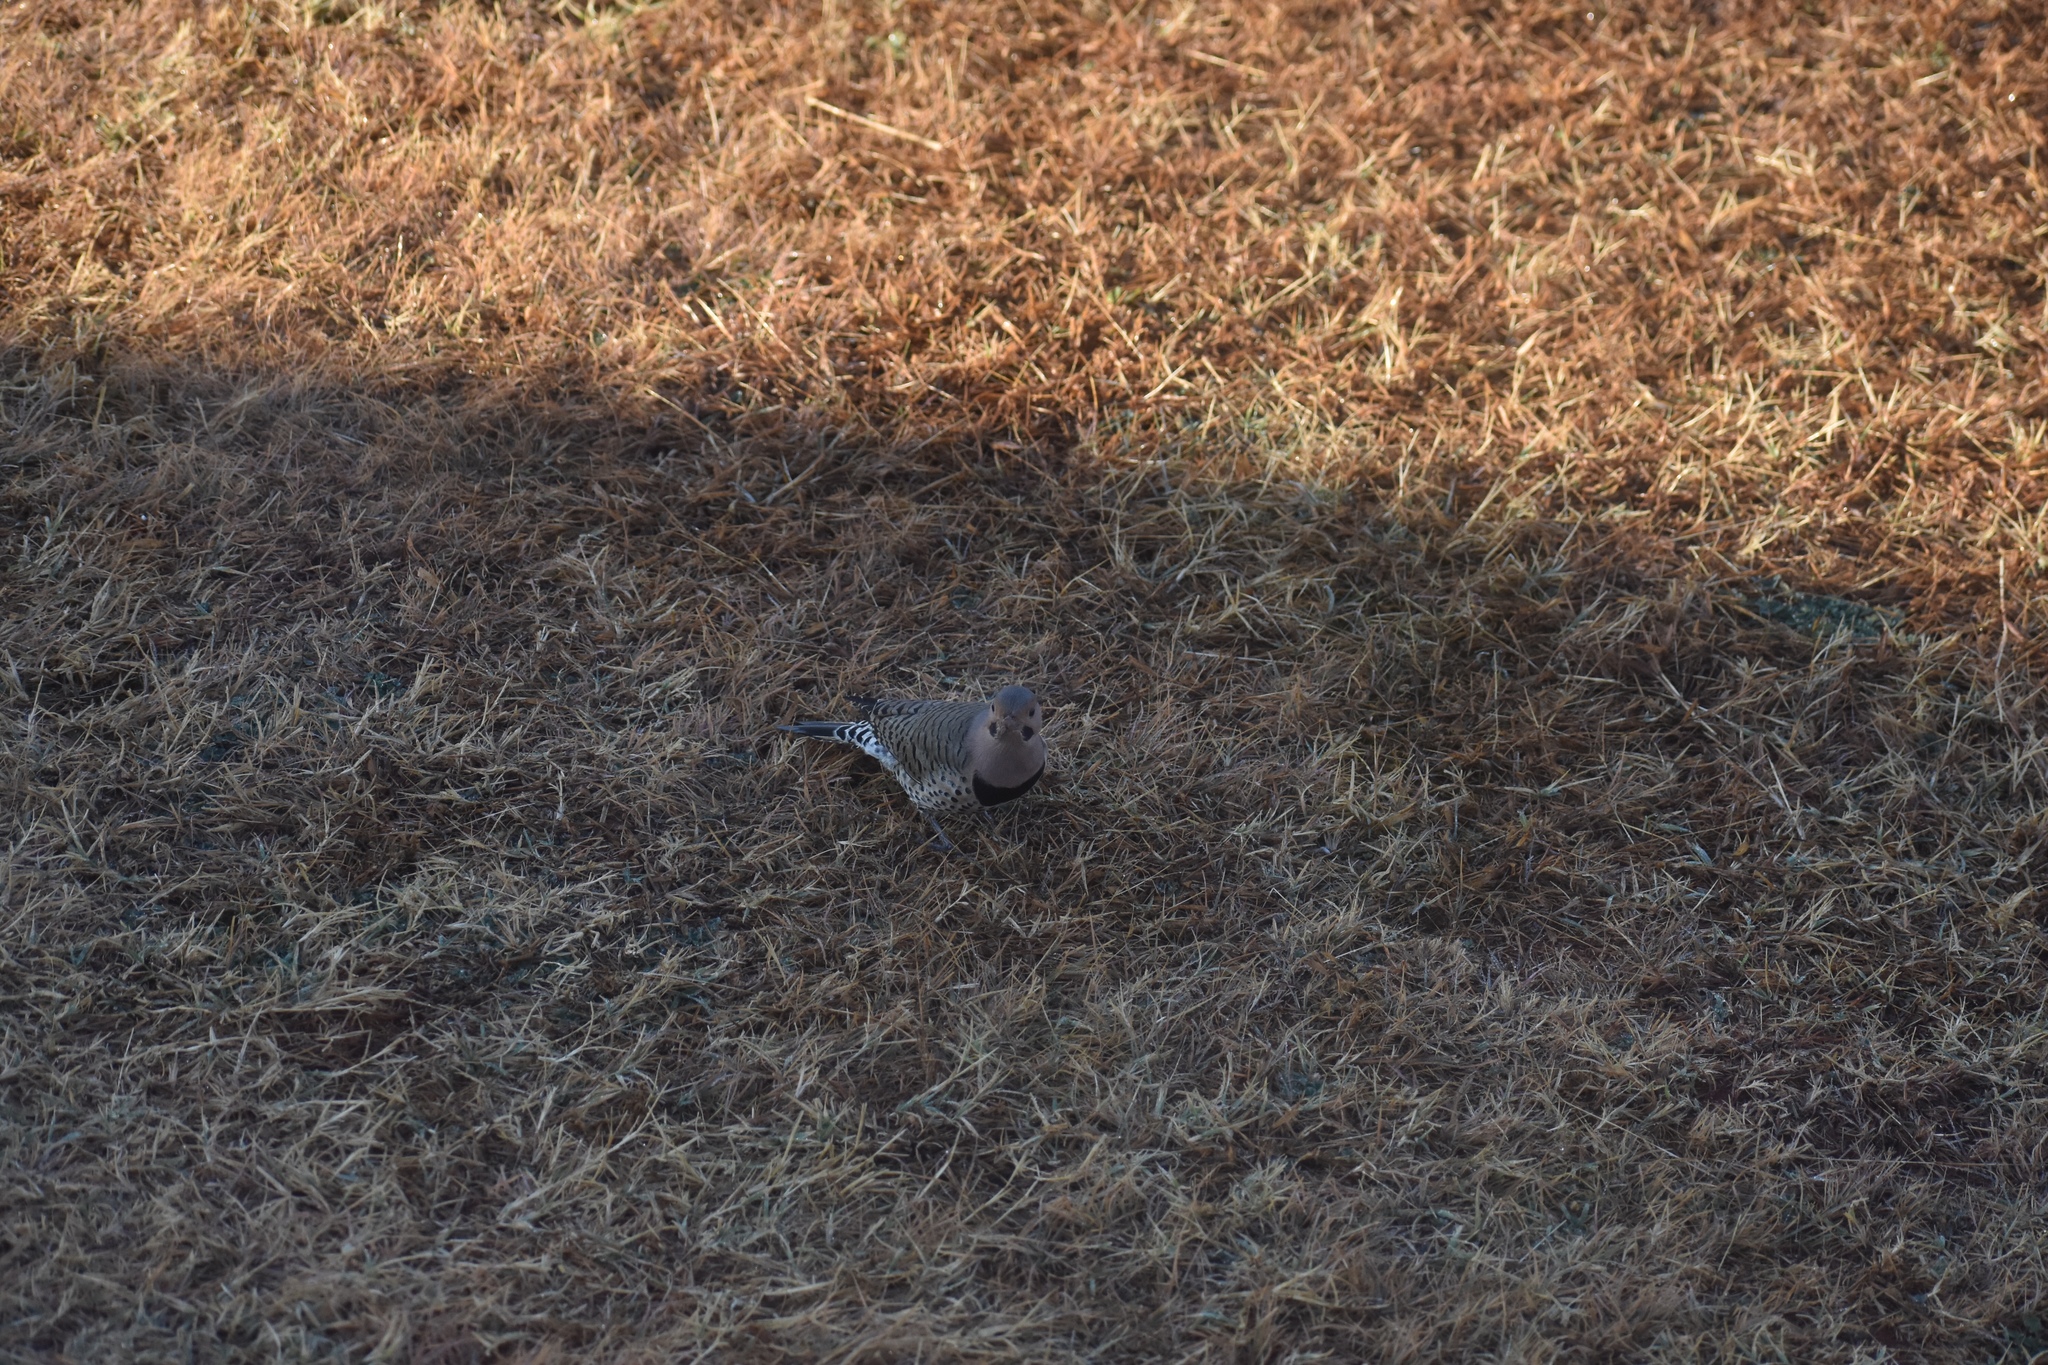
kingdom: Animalia
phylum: Chordata
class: Aves
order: Piciformes
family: Picidae
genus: Colaptes
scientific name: Colaptes auratus
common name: Northern flicker
